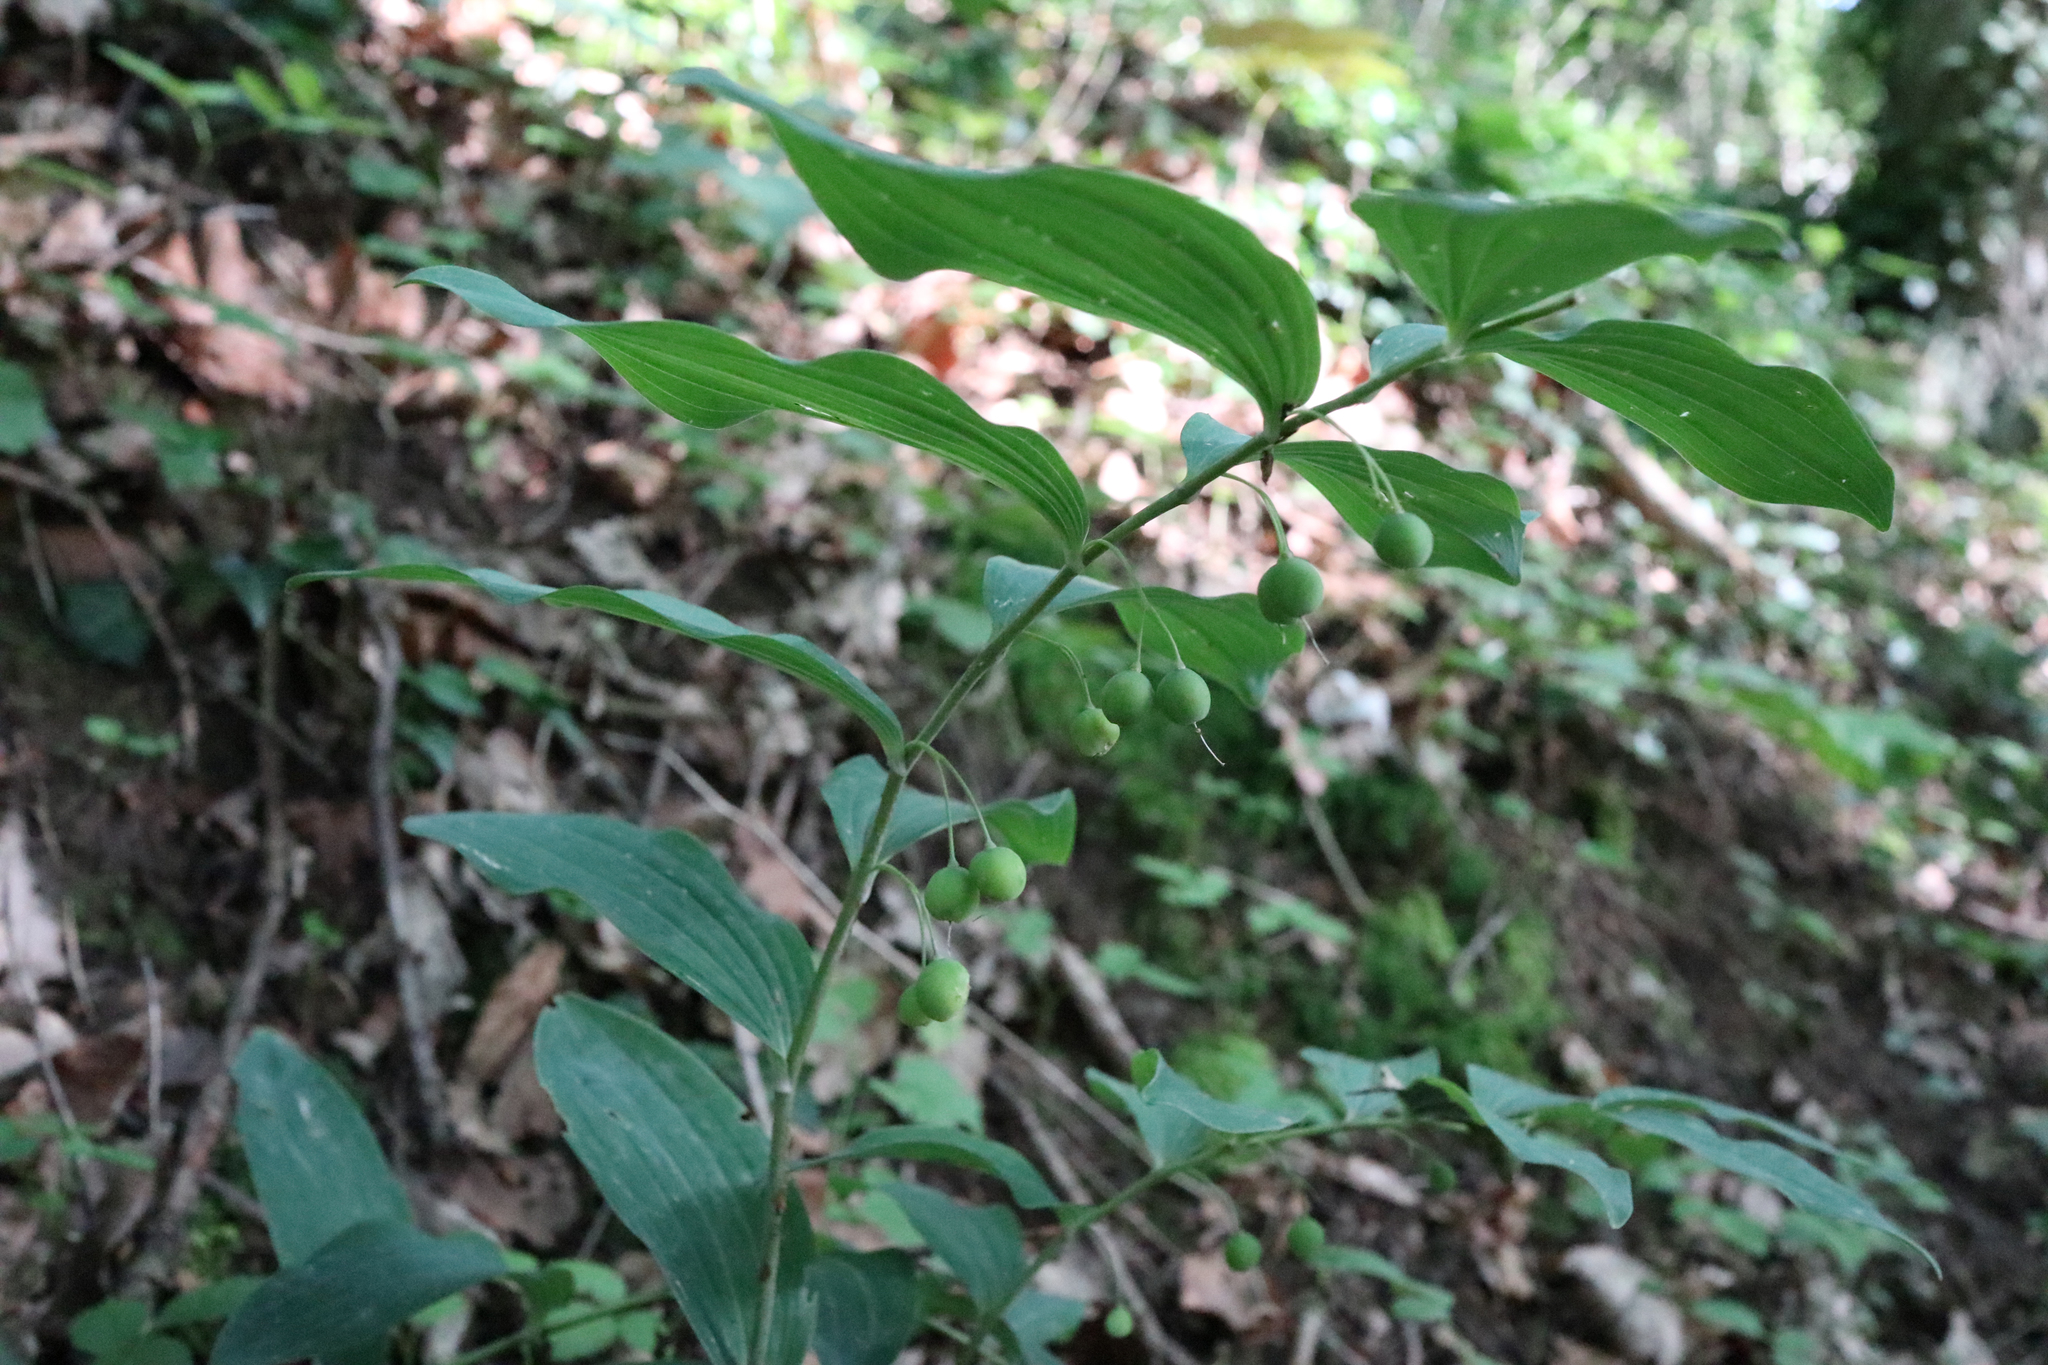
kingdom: Plantae
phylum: Tracheophyta
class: Liliopsida
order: Asparagales
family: Asparagaceae
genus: Polygonatum
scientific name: Polygonatum multiflorum
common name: Solomon's-seal
